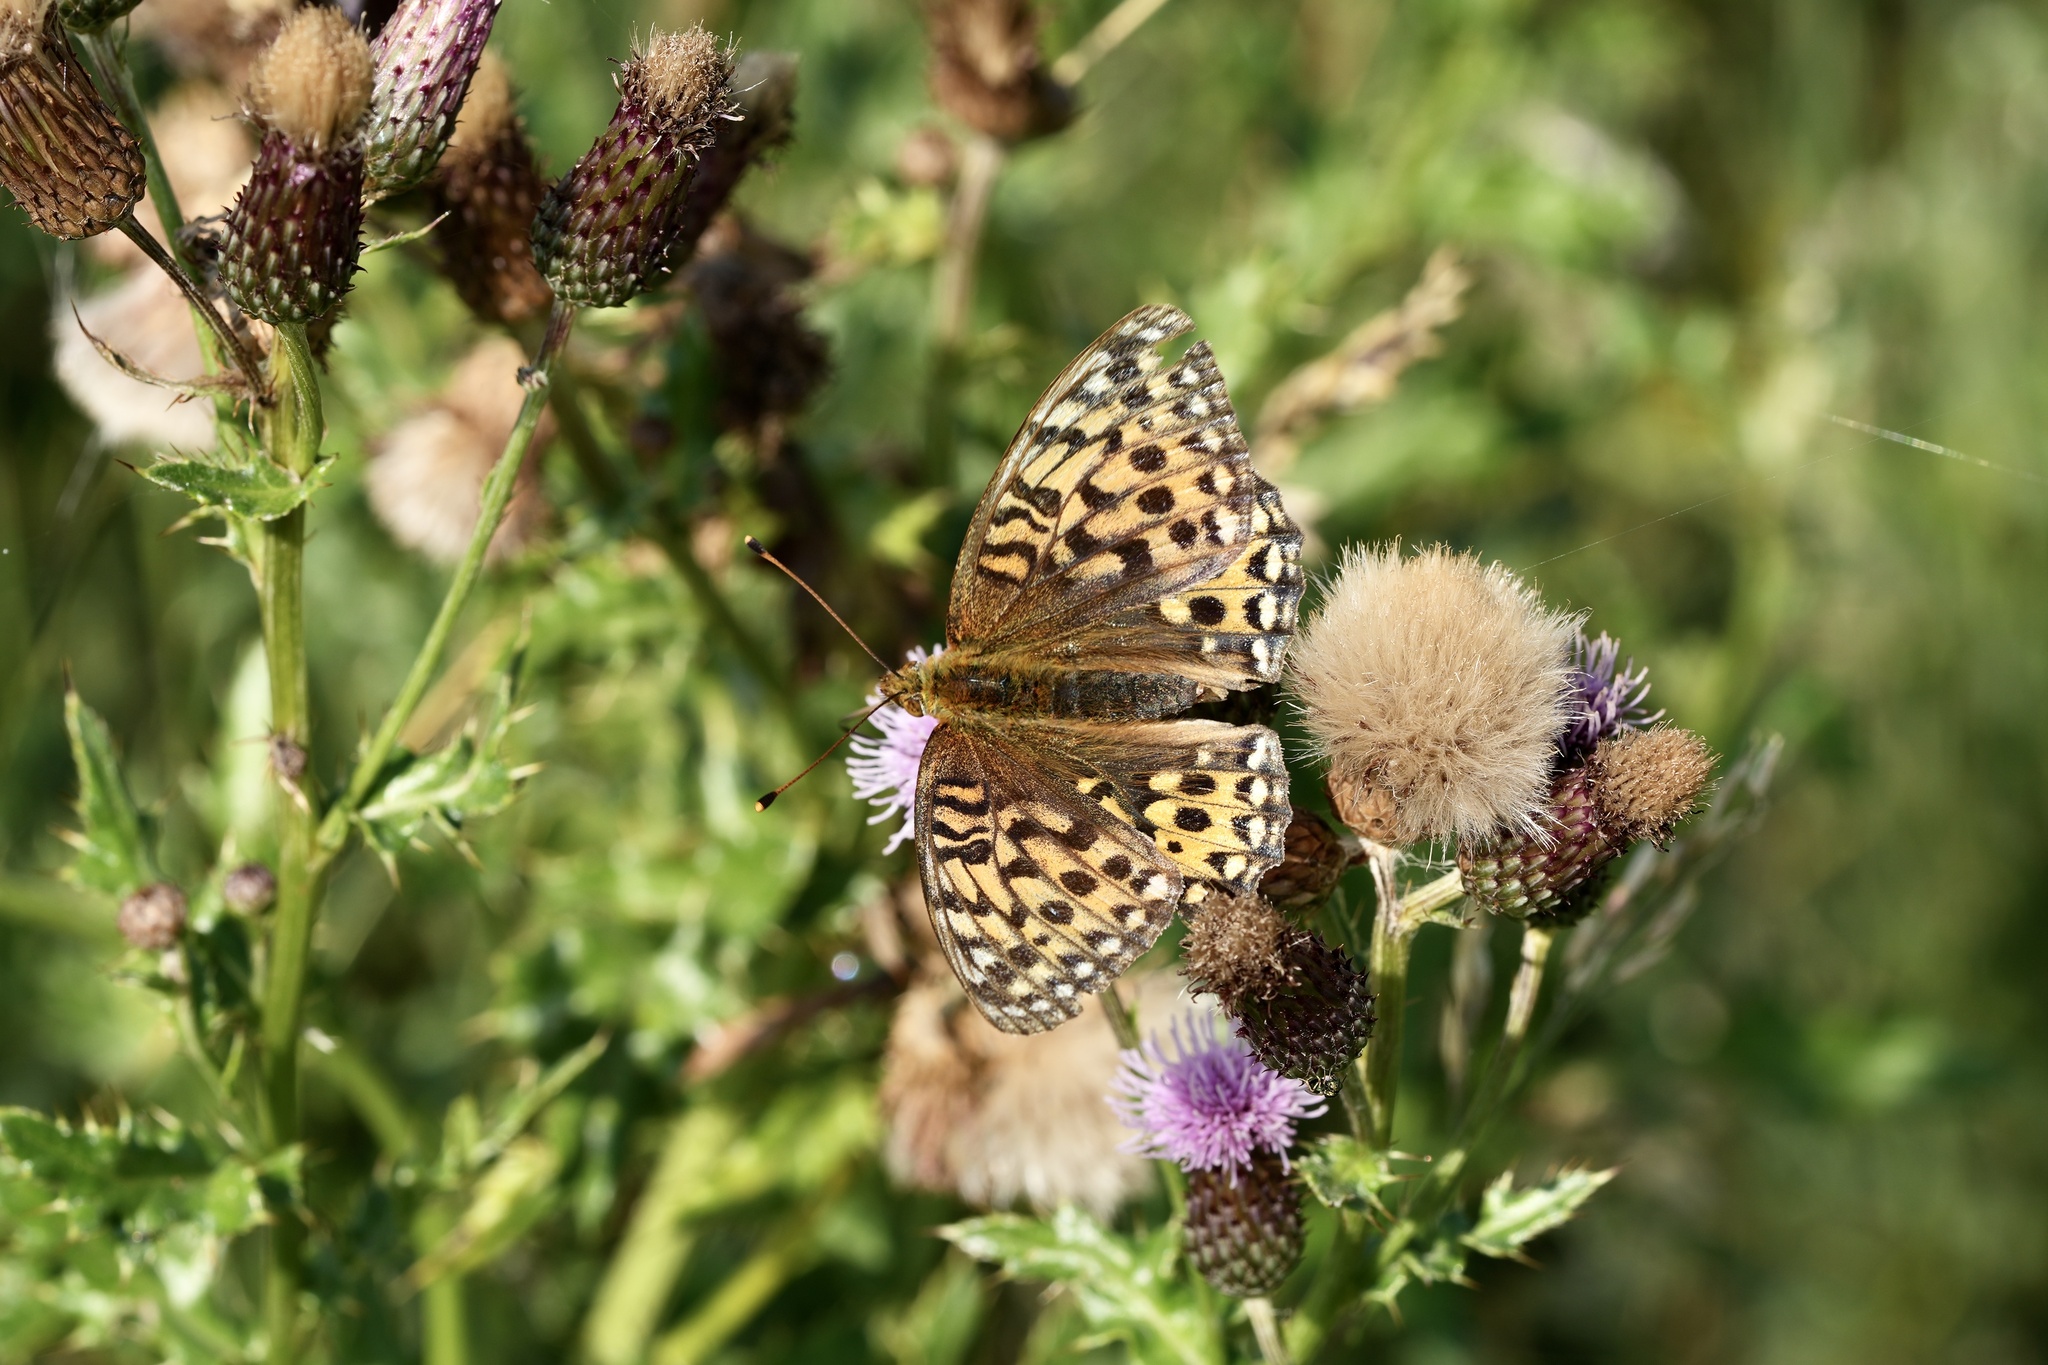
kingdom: Animalia
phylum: Arthropoda
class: Insecta
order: Lepidoptera
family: Nymphalidae
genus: Speyeria
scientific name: Speyeria aglaja
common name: Dark green fritillary
